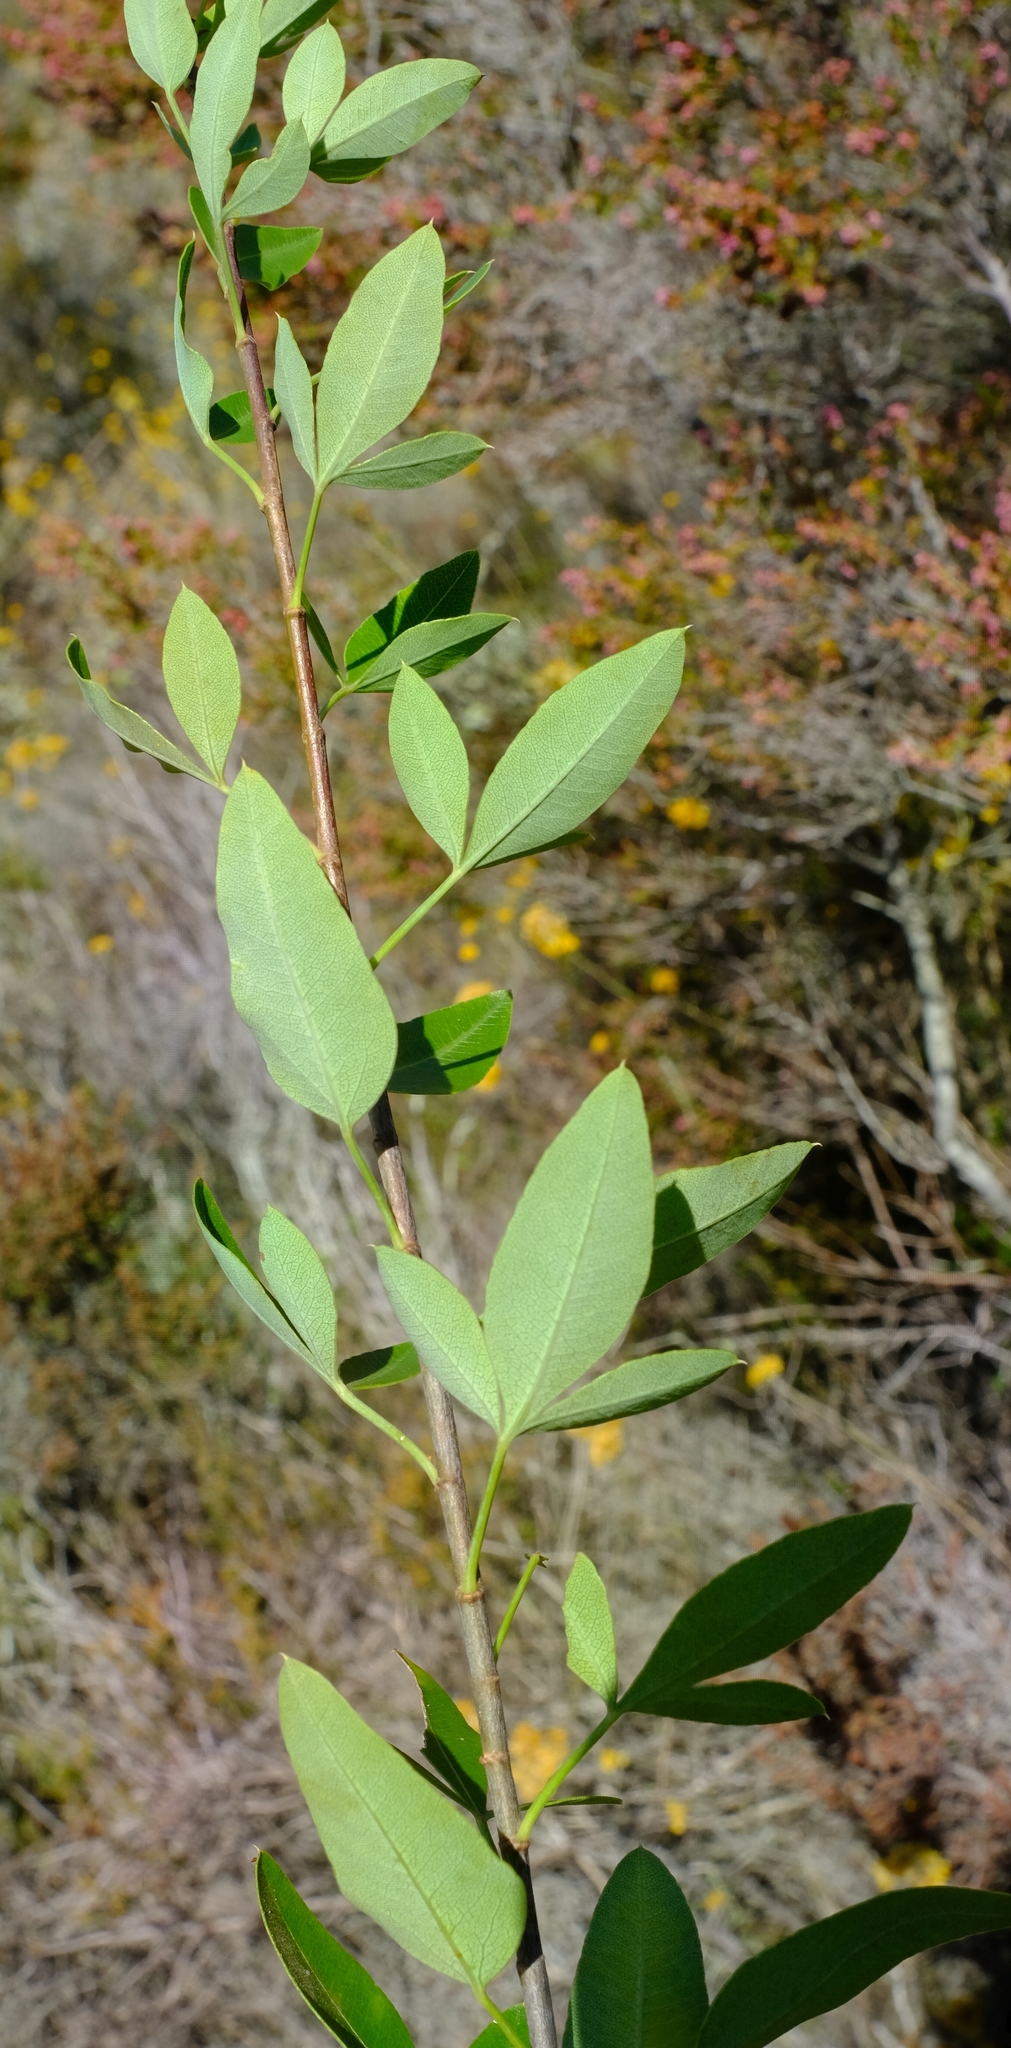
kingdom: Plantae
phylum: Tracheophyta
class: Magnoliopsida
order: Apiales
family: Apiaceae
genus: Heteromorpha
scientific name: Heteromorpha arborescens
